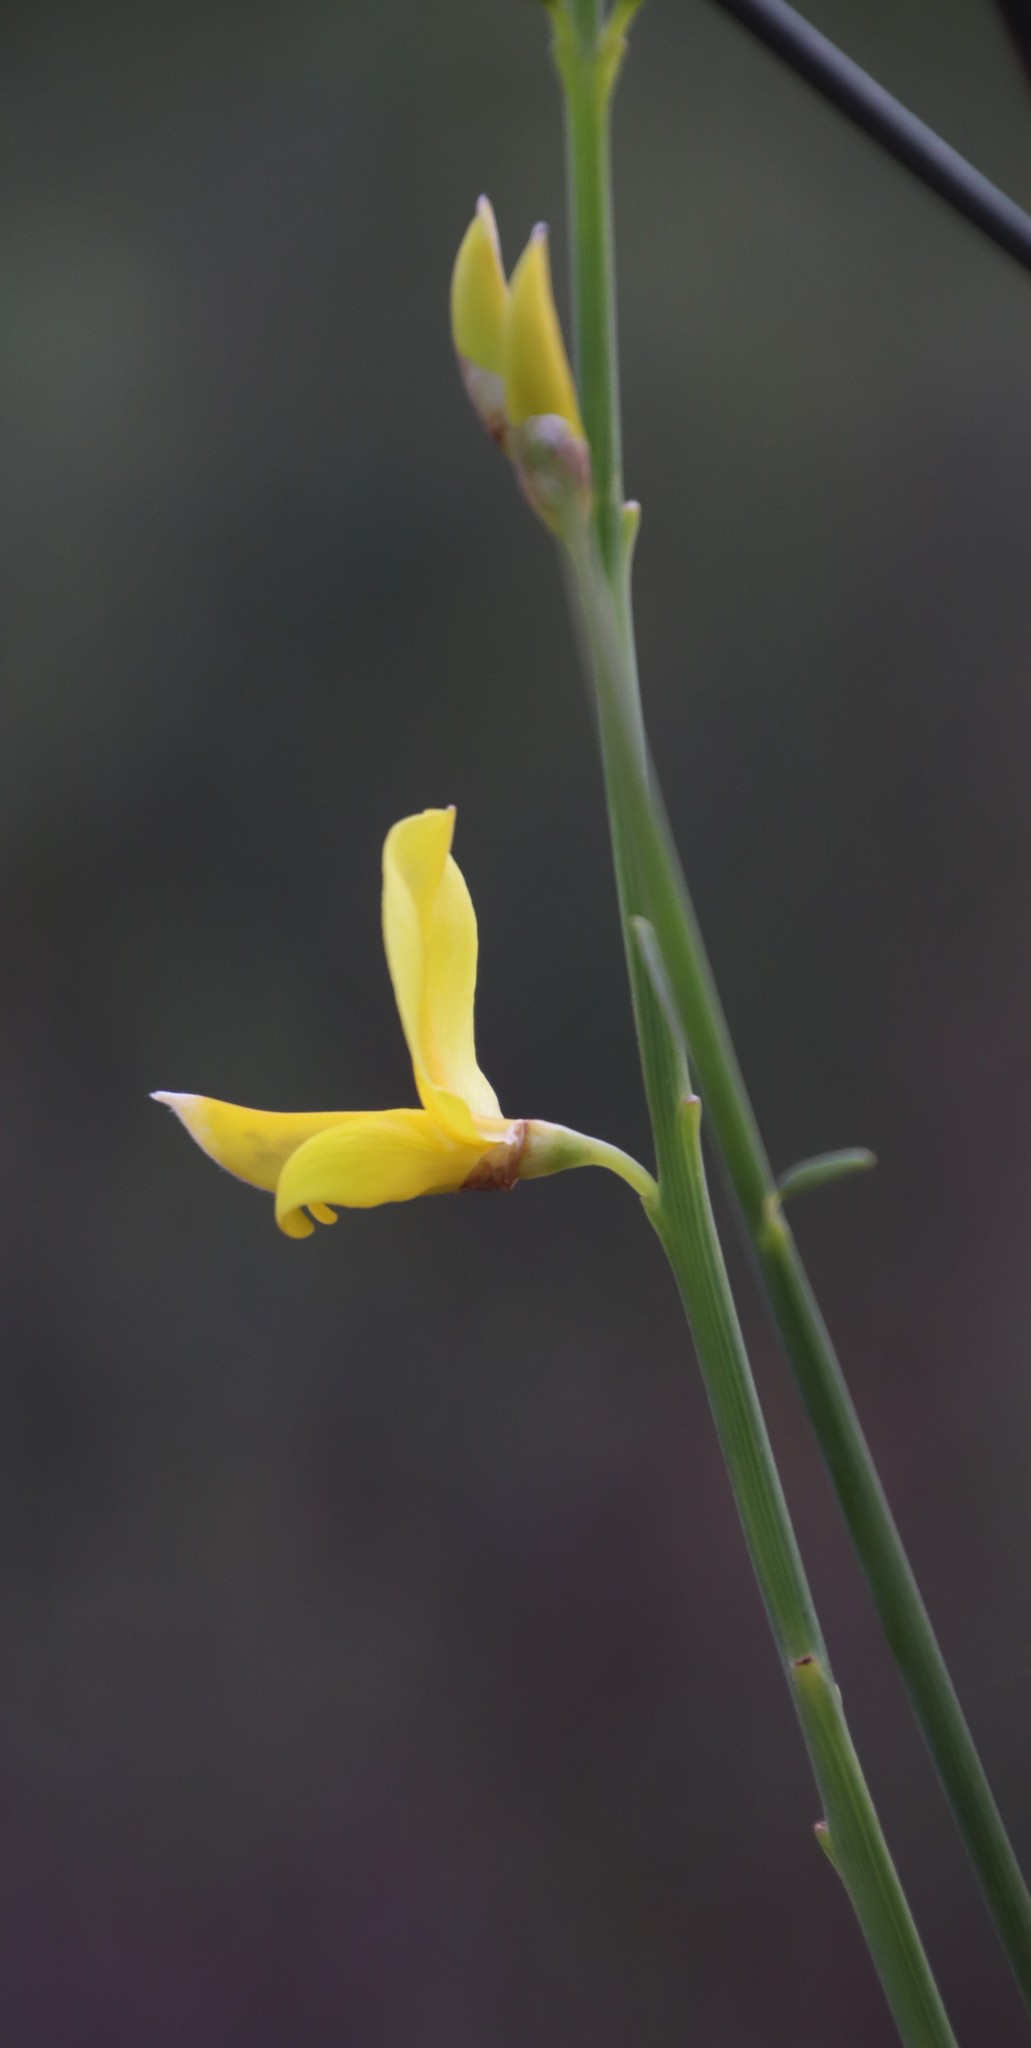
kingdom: Plantae
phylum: Tracheophyta
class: Magnoliopsida
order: Fabales
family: Fabaceae
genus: Spartium
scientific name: Spartium junceum
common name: Spanish broom
